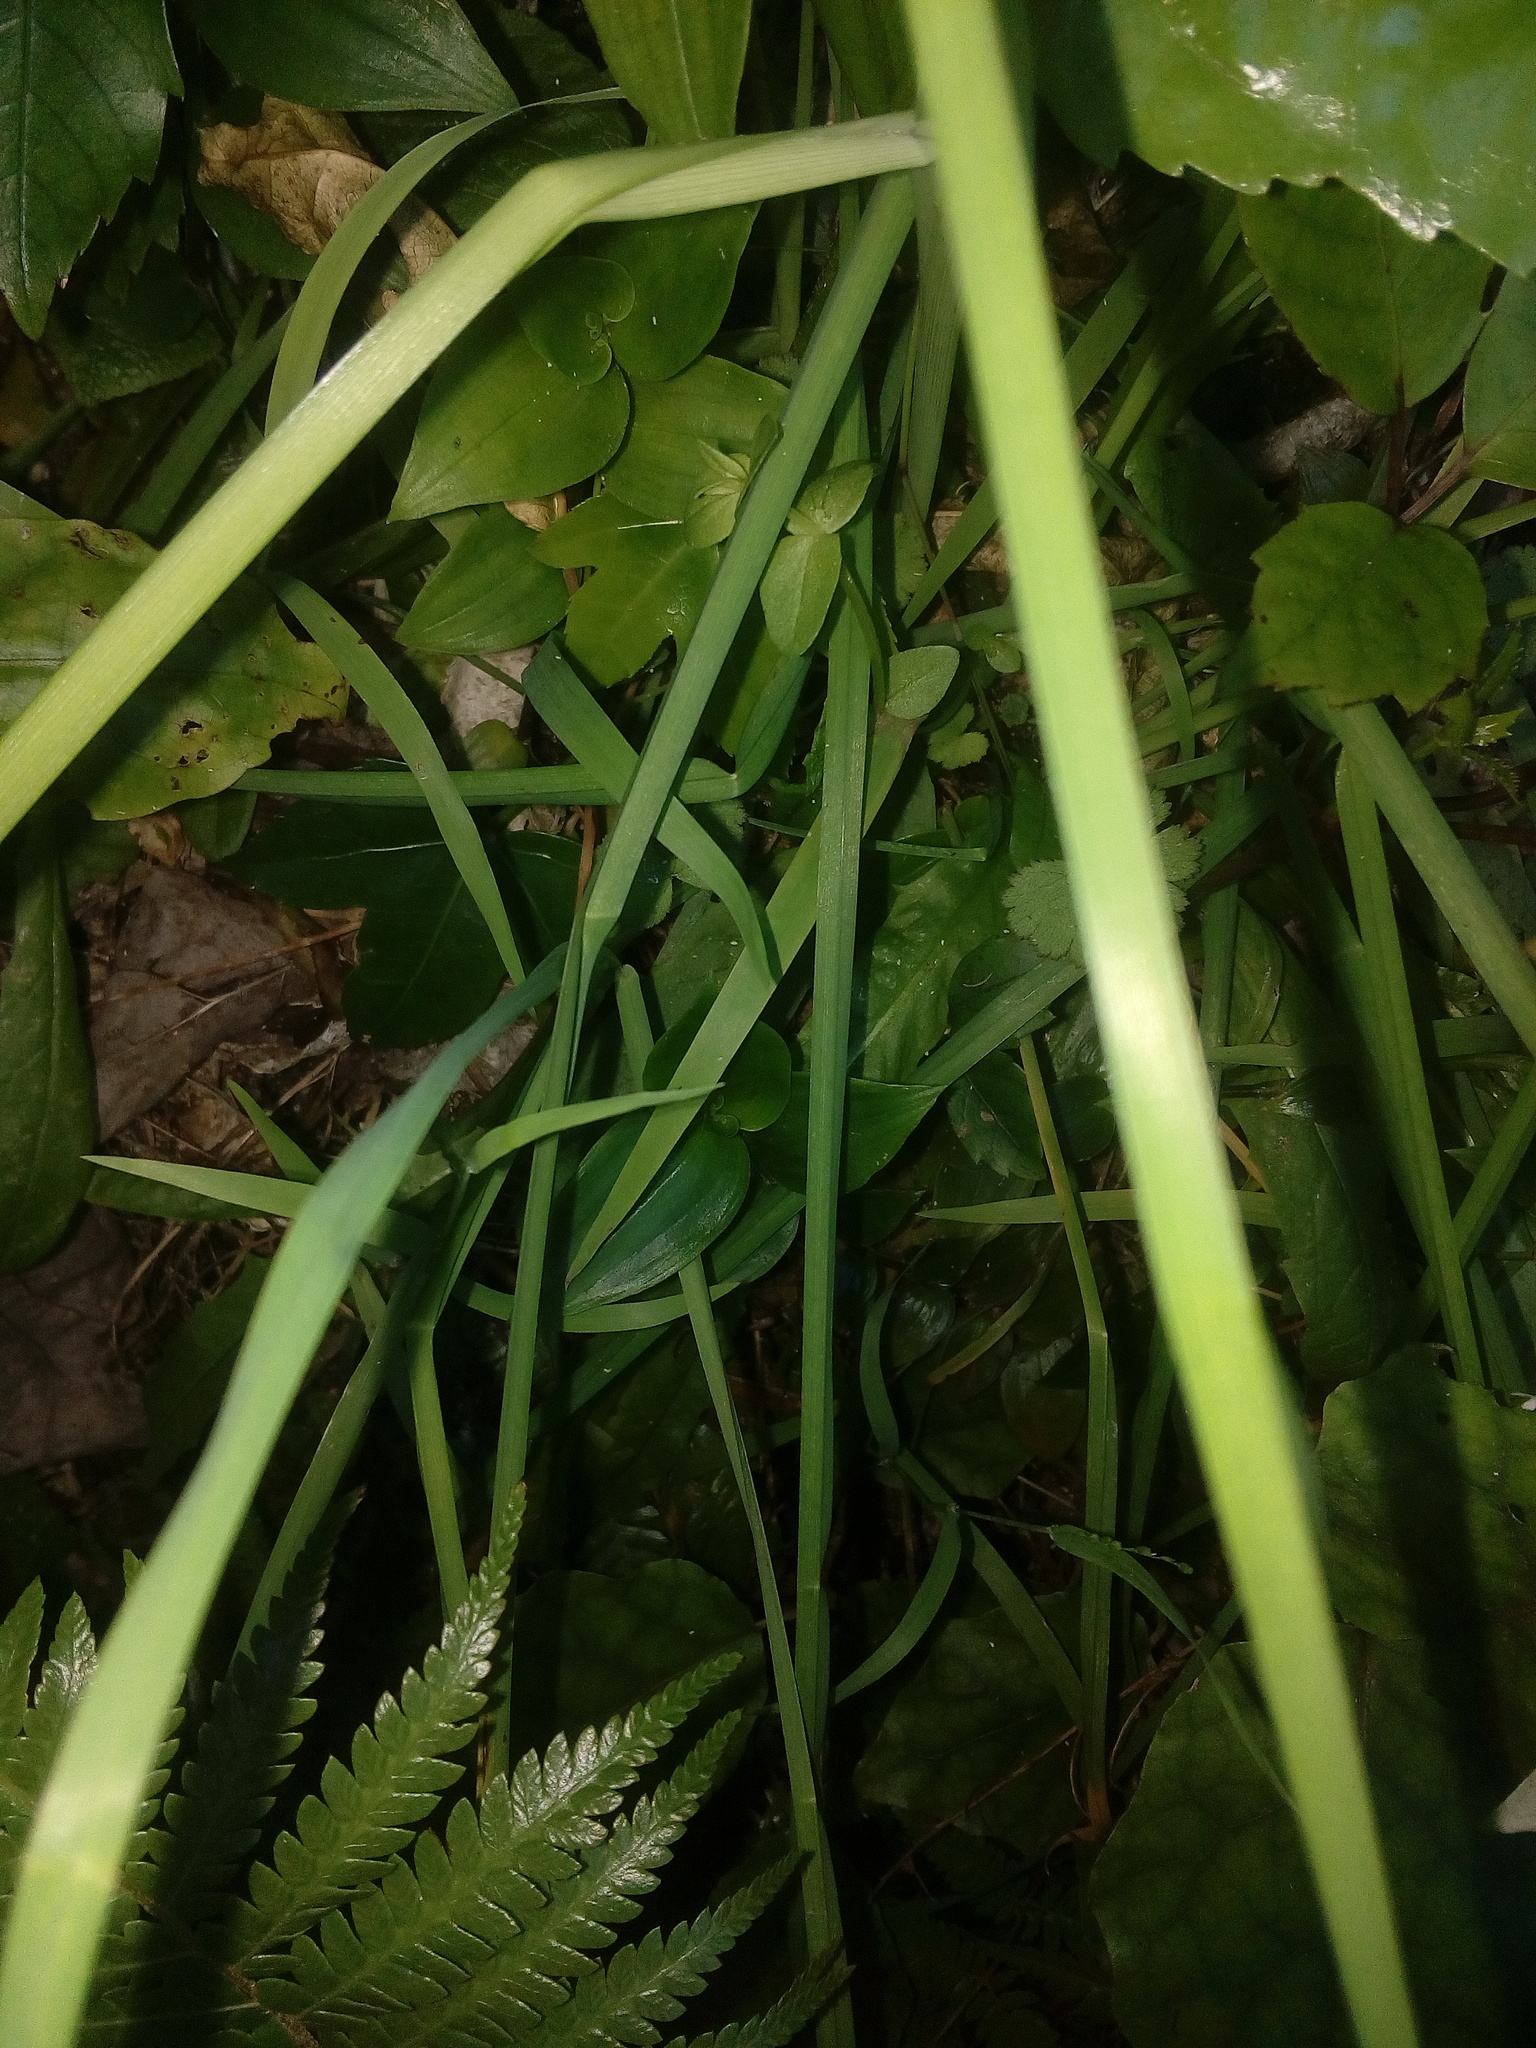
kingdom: Plantae
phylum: Tracheophyta
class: Liliopsida
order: Commelinales
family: Commelinaceae
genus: Tradescantia
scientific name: Tradescantia fluminensis
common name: Wandering-jew
